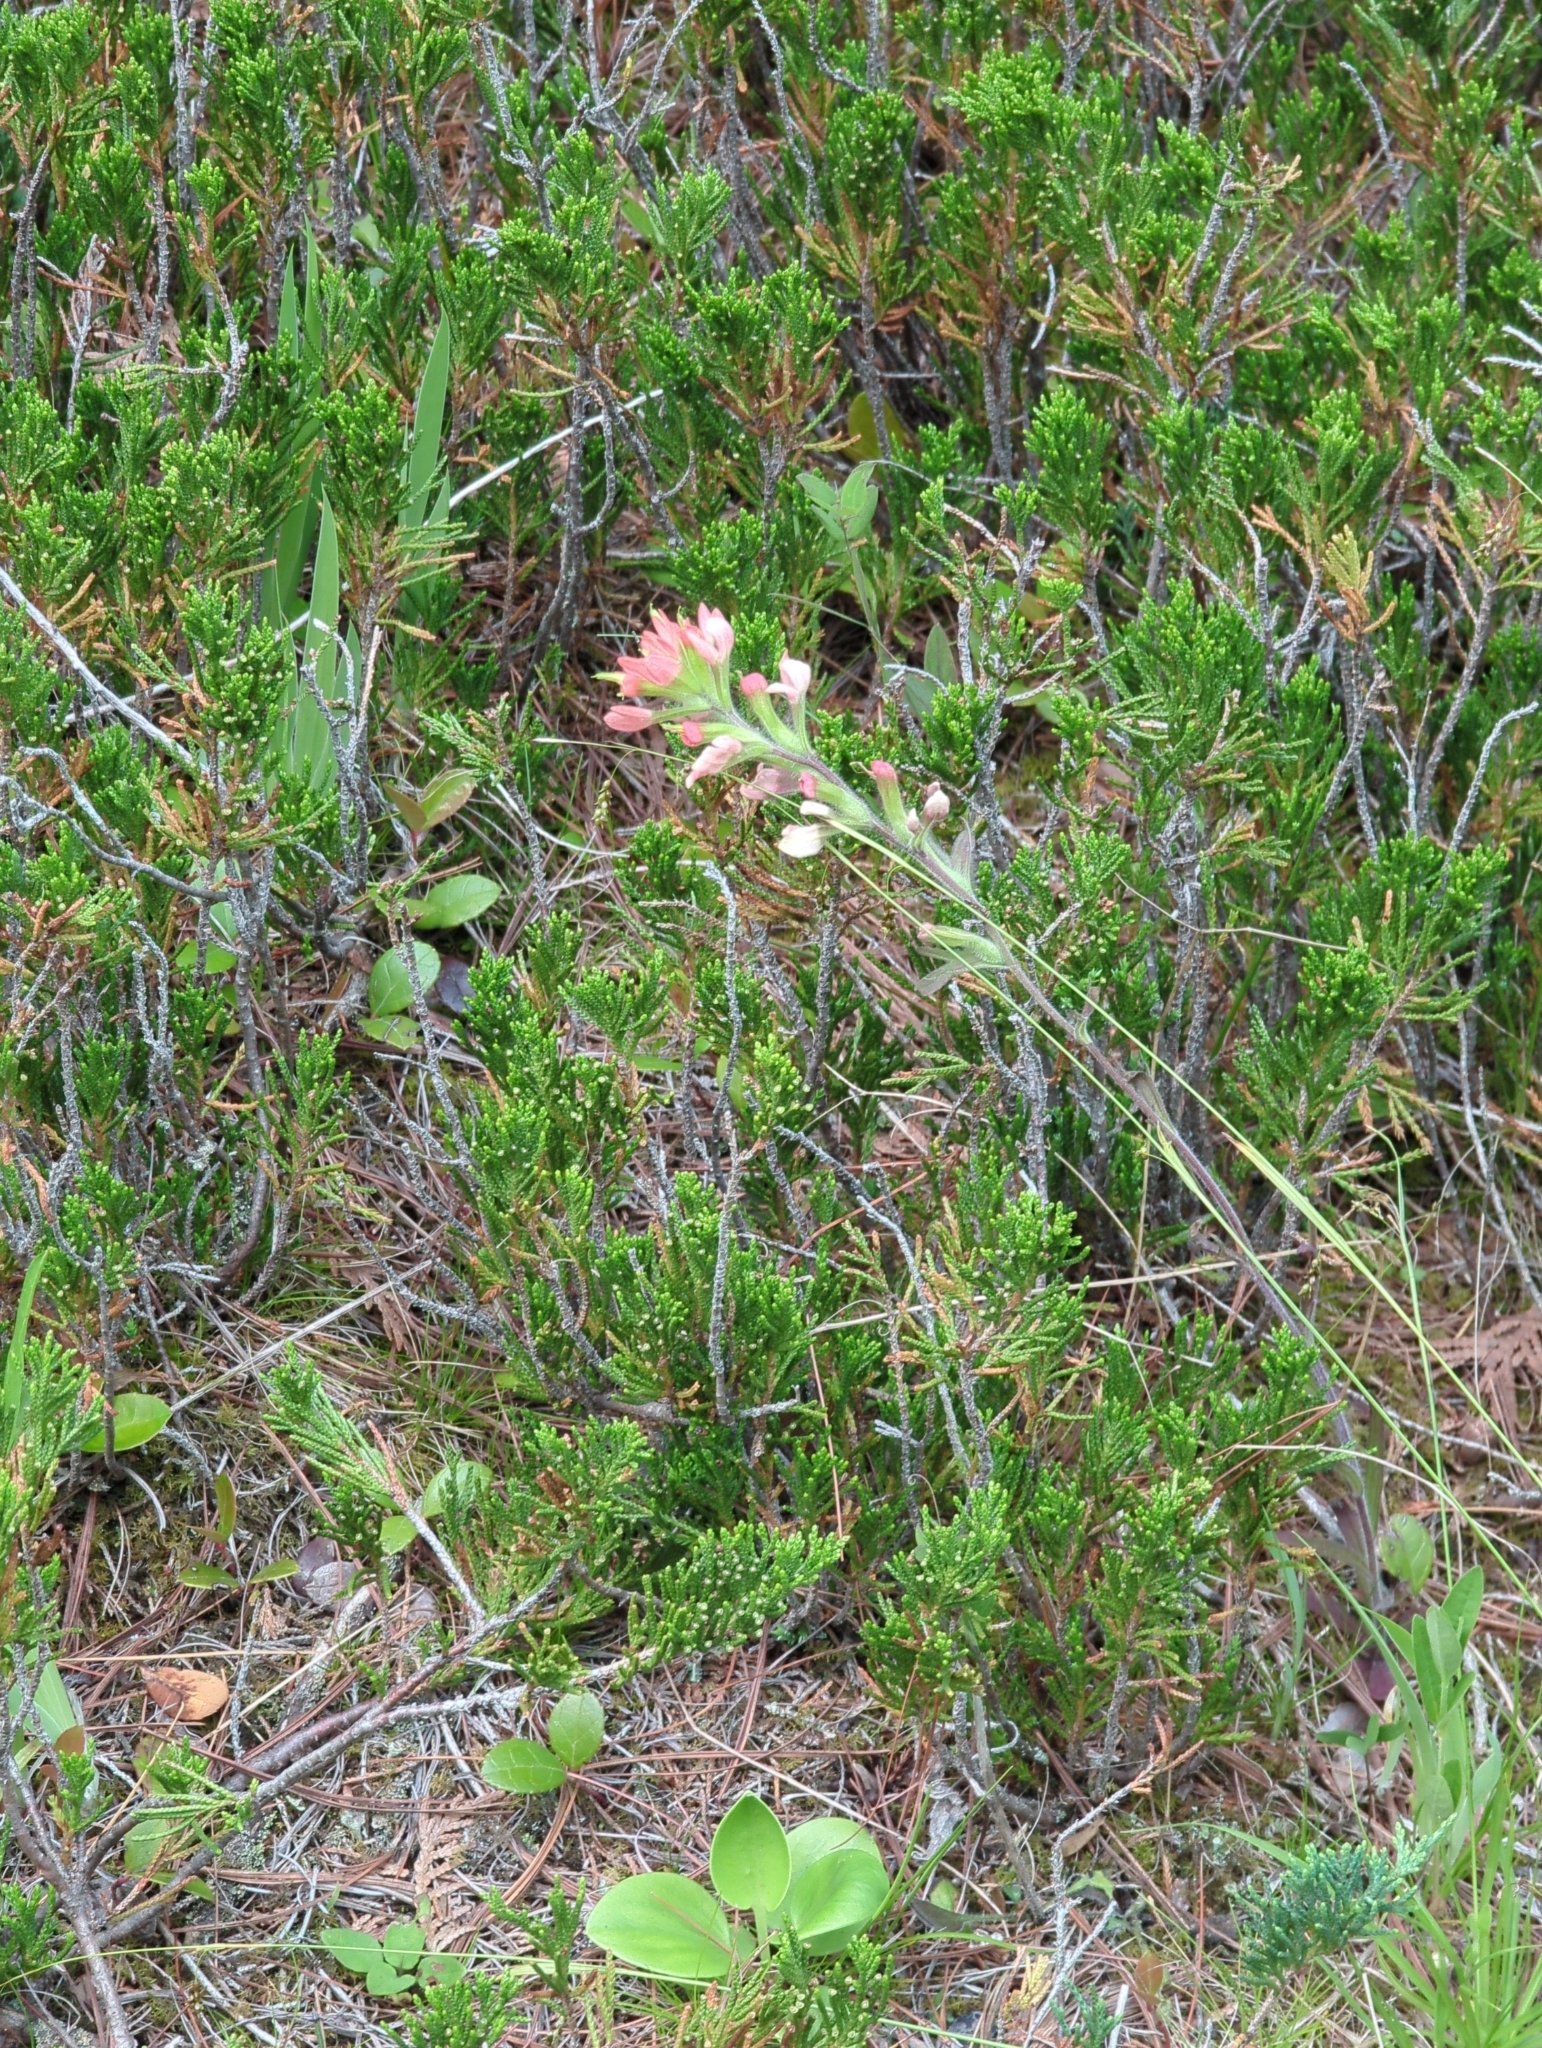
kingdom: Plantae
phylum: Tracheophyta
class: Magnoliopsida
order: Lamiales
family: Orobanchaceae
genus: Castilleja
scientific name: Castilleja coccinea
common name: Scarlet paintbrush
